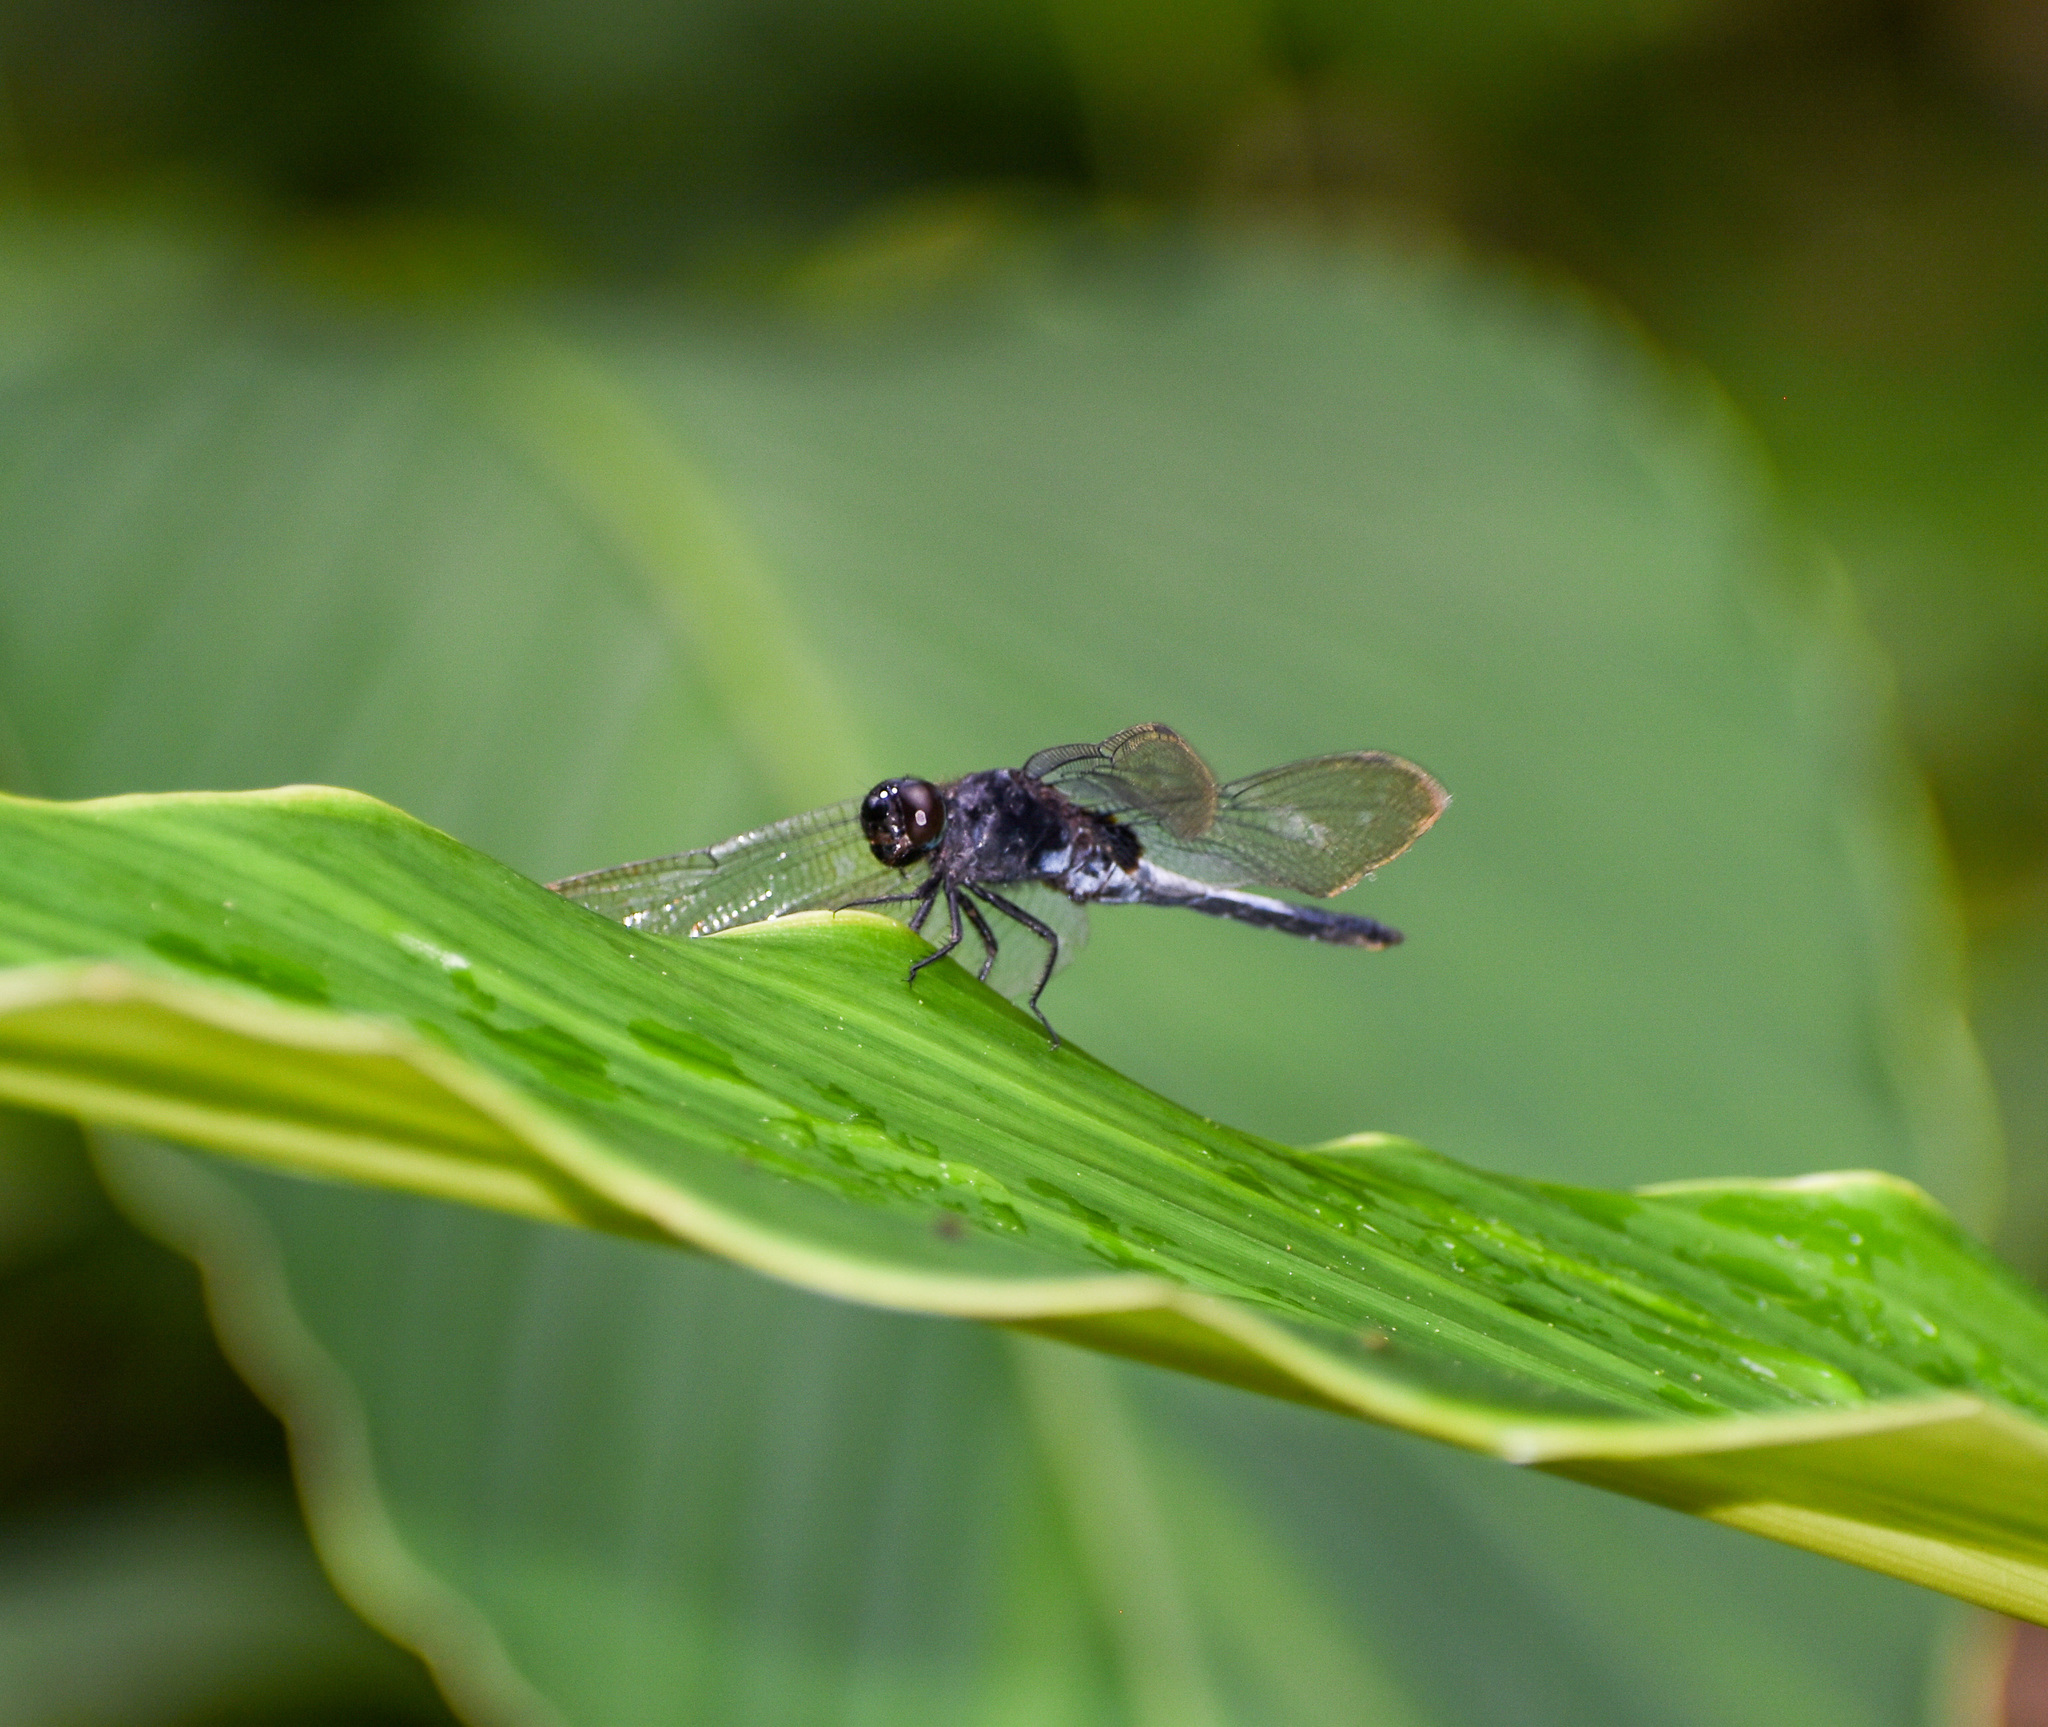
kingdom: Animalia
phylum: Arthropoda
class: Insecta
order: Odonata
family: Libellulidae
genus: Orthetrum
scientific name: Orthetrum triangulare
